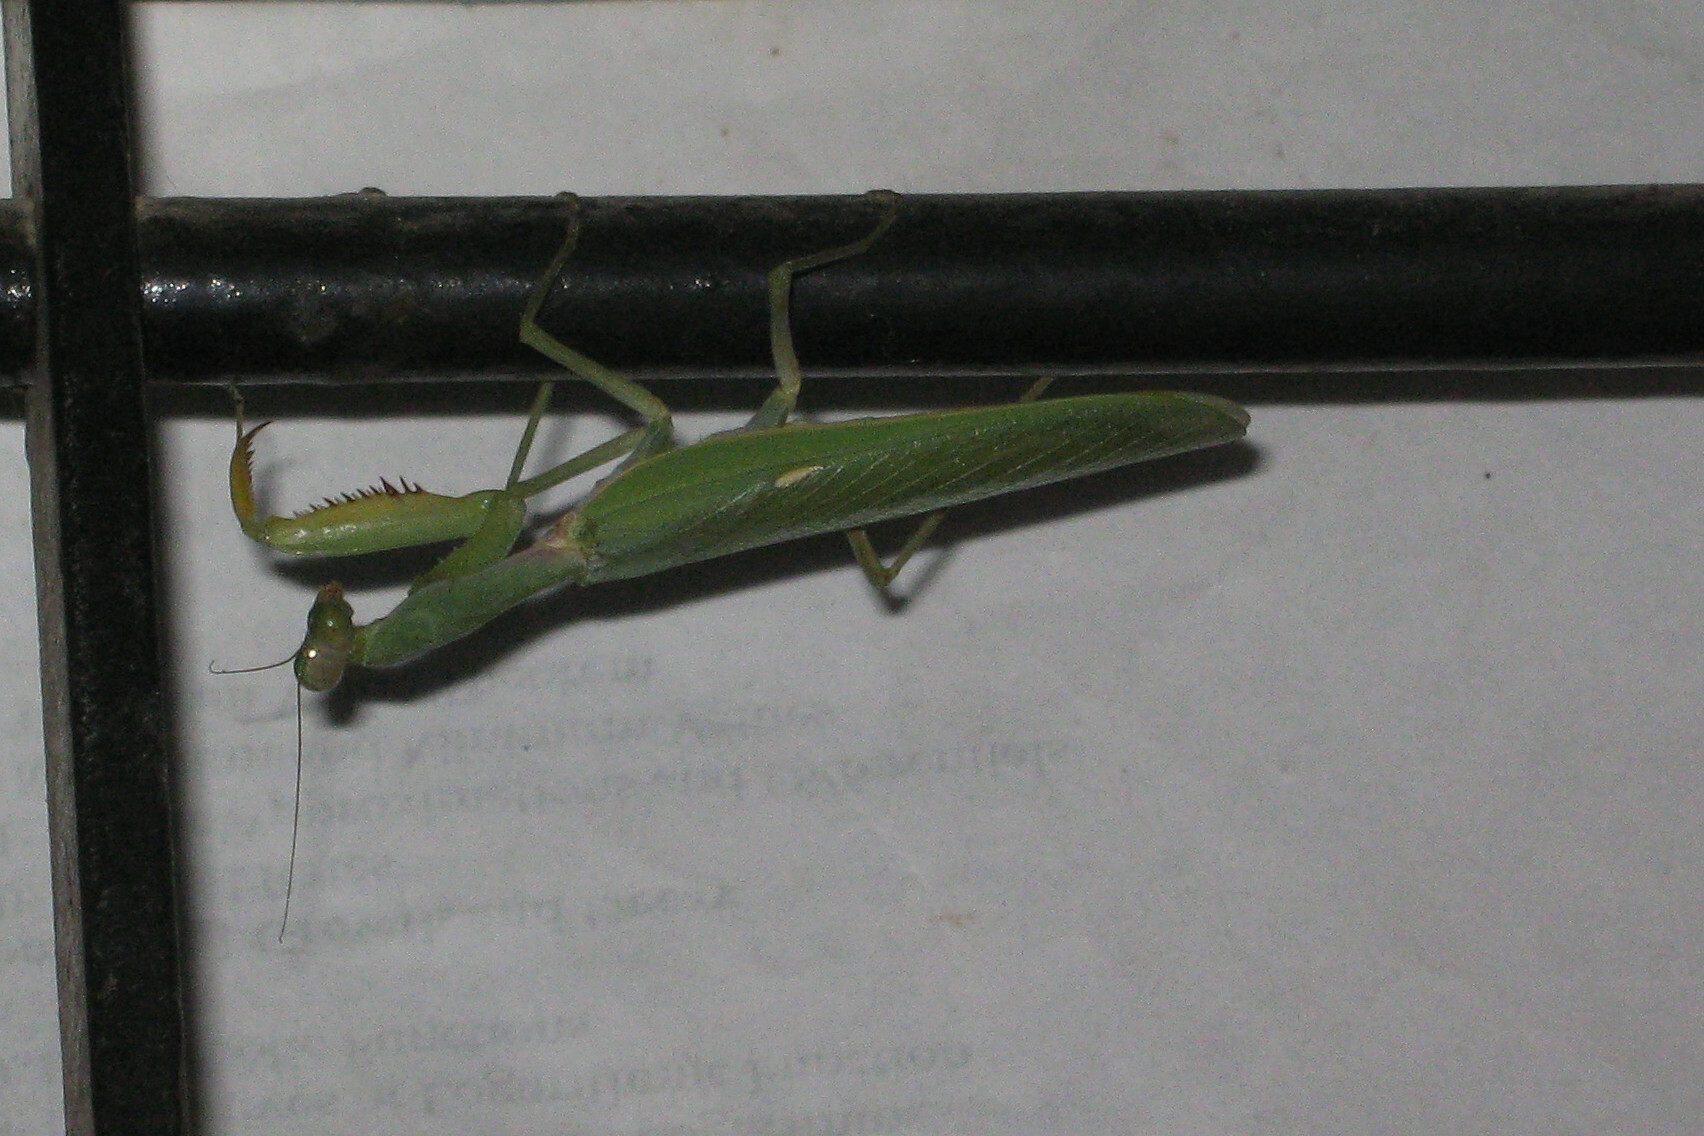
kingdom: Animalia
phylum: Arthropoda
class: Insecta
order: Mantodea
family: Mantidae
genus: Hierodula
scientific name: Hierodula tenuidentata
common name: Giant asian mantis
